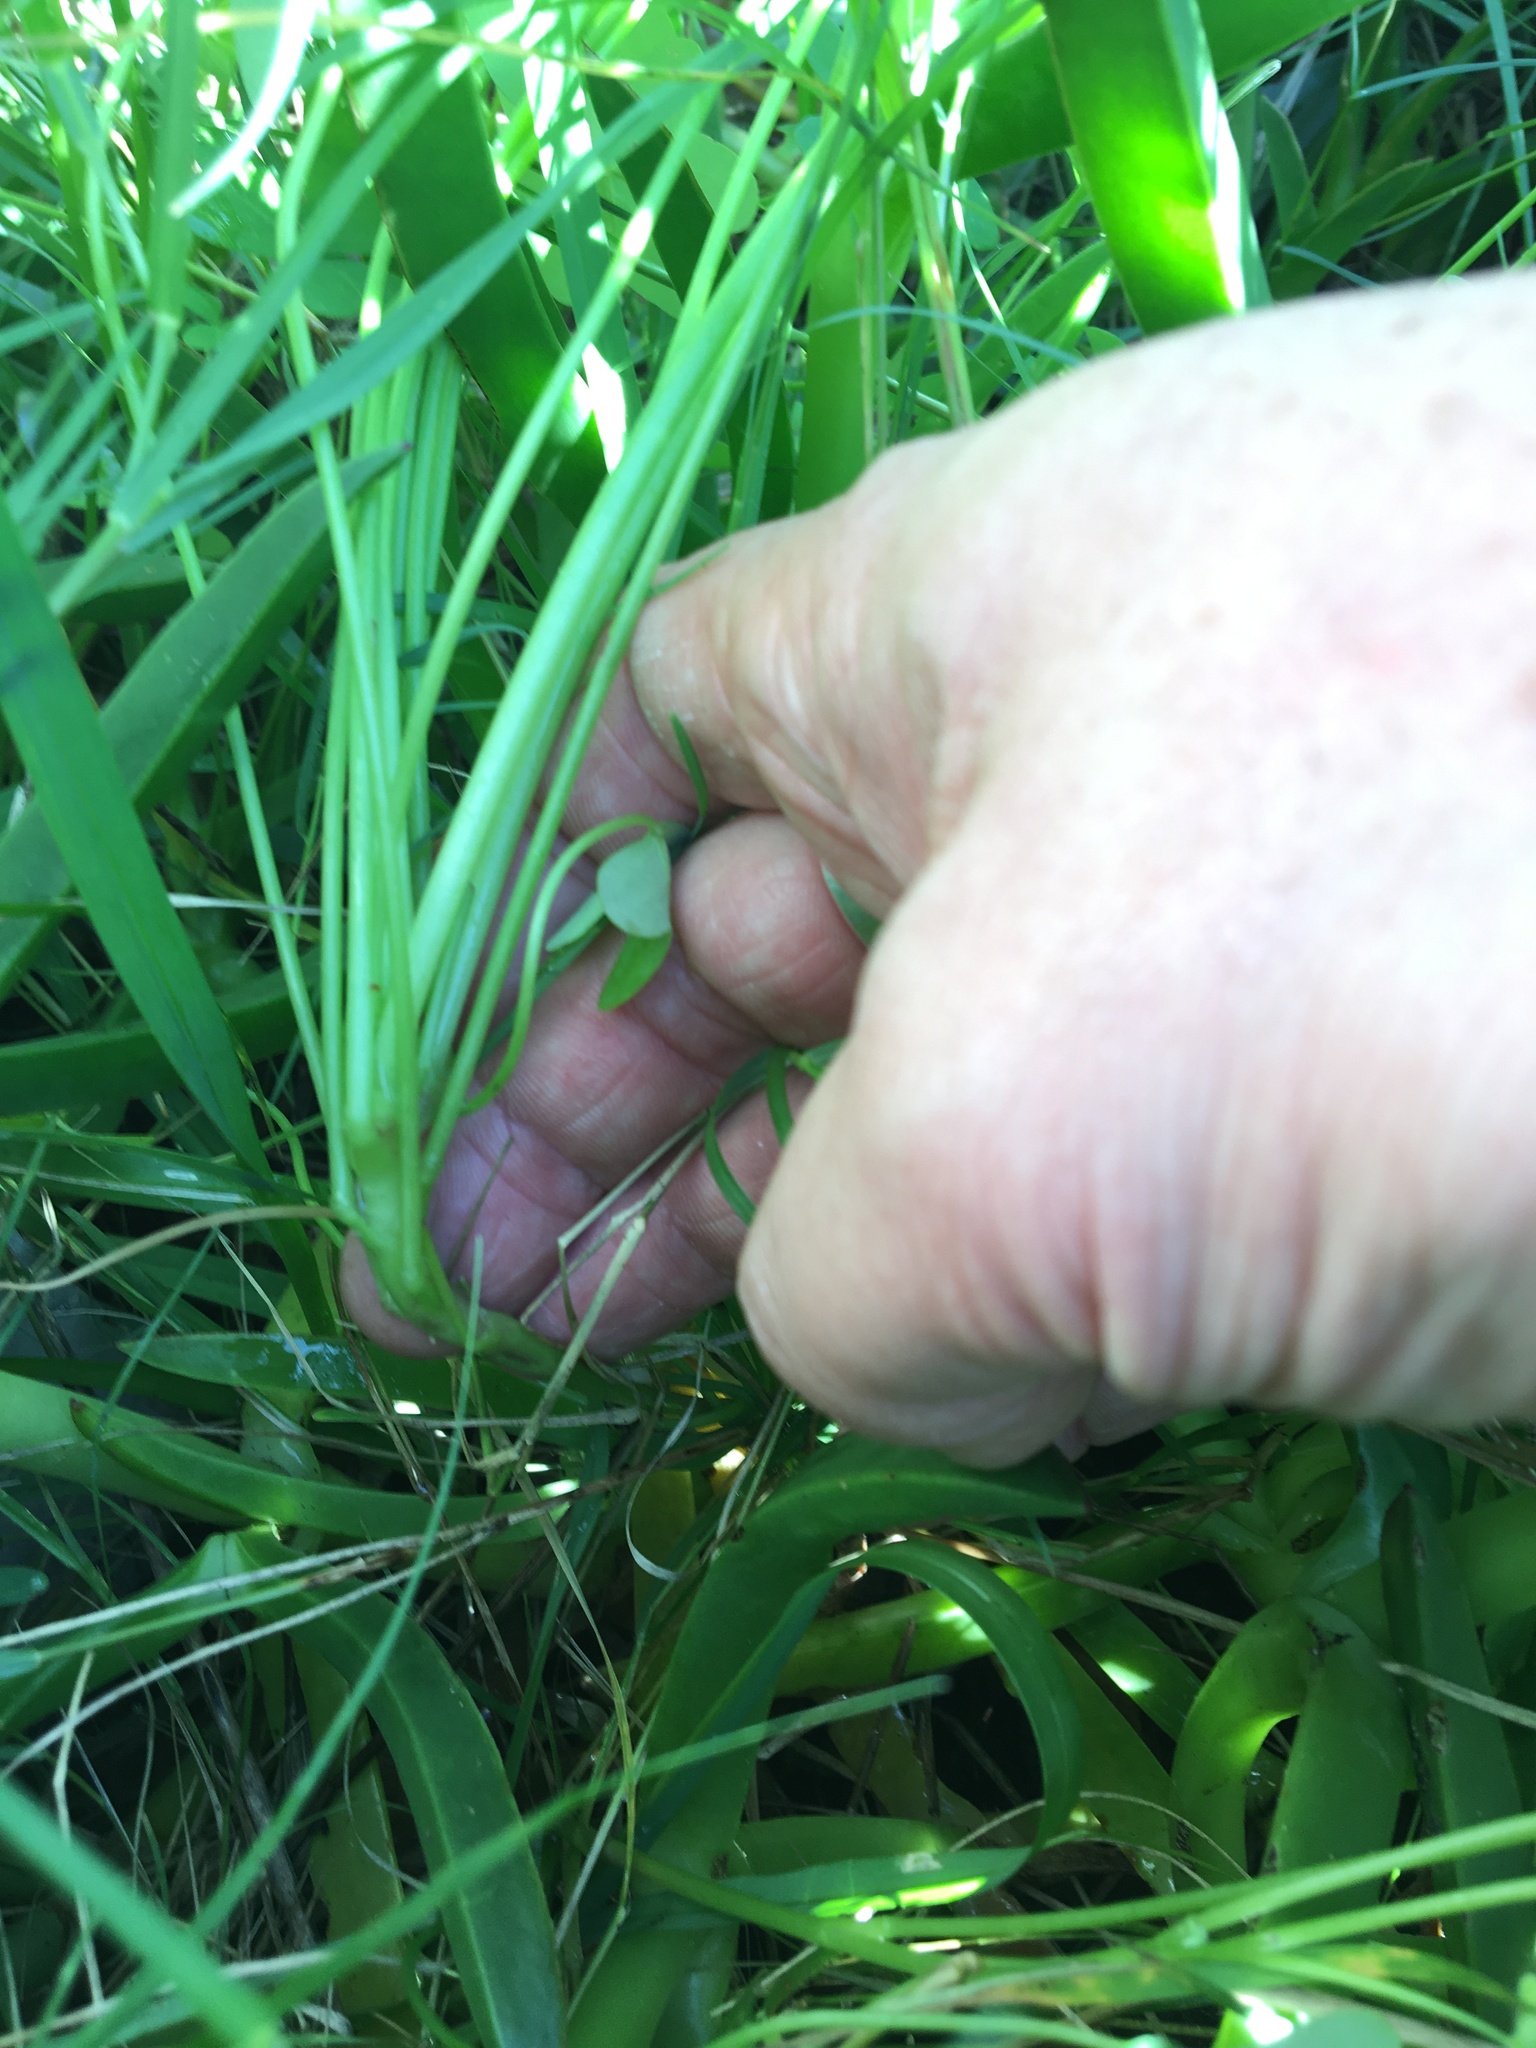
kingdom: Plantae
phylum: Tracheophyta
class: Magnoliopsida
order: Oxalidales
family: Oxalidaceae
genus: Oxalis
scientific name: Oxalis pes-caprae
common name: Bermuda-buttercup
